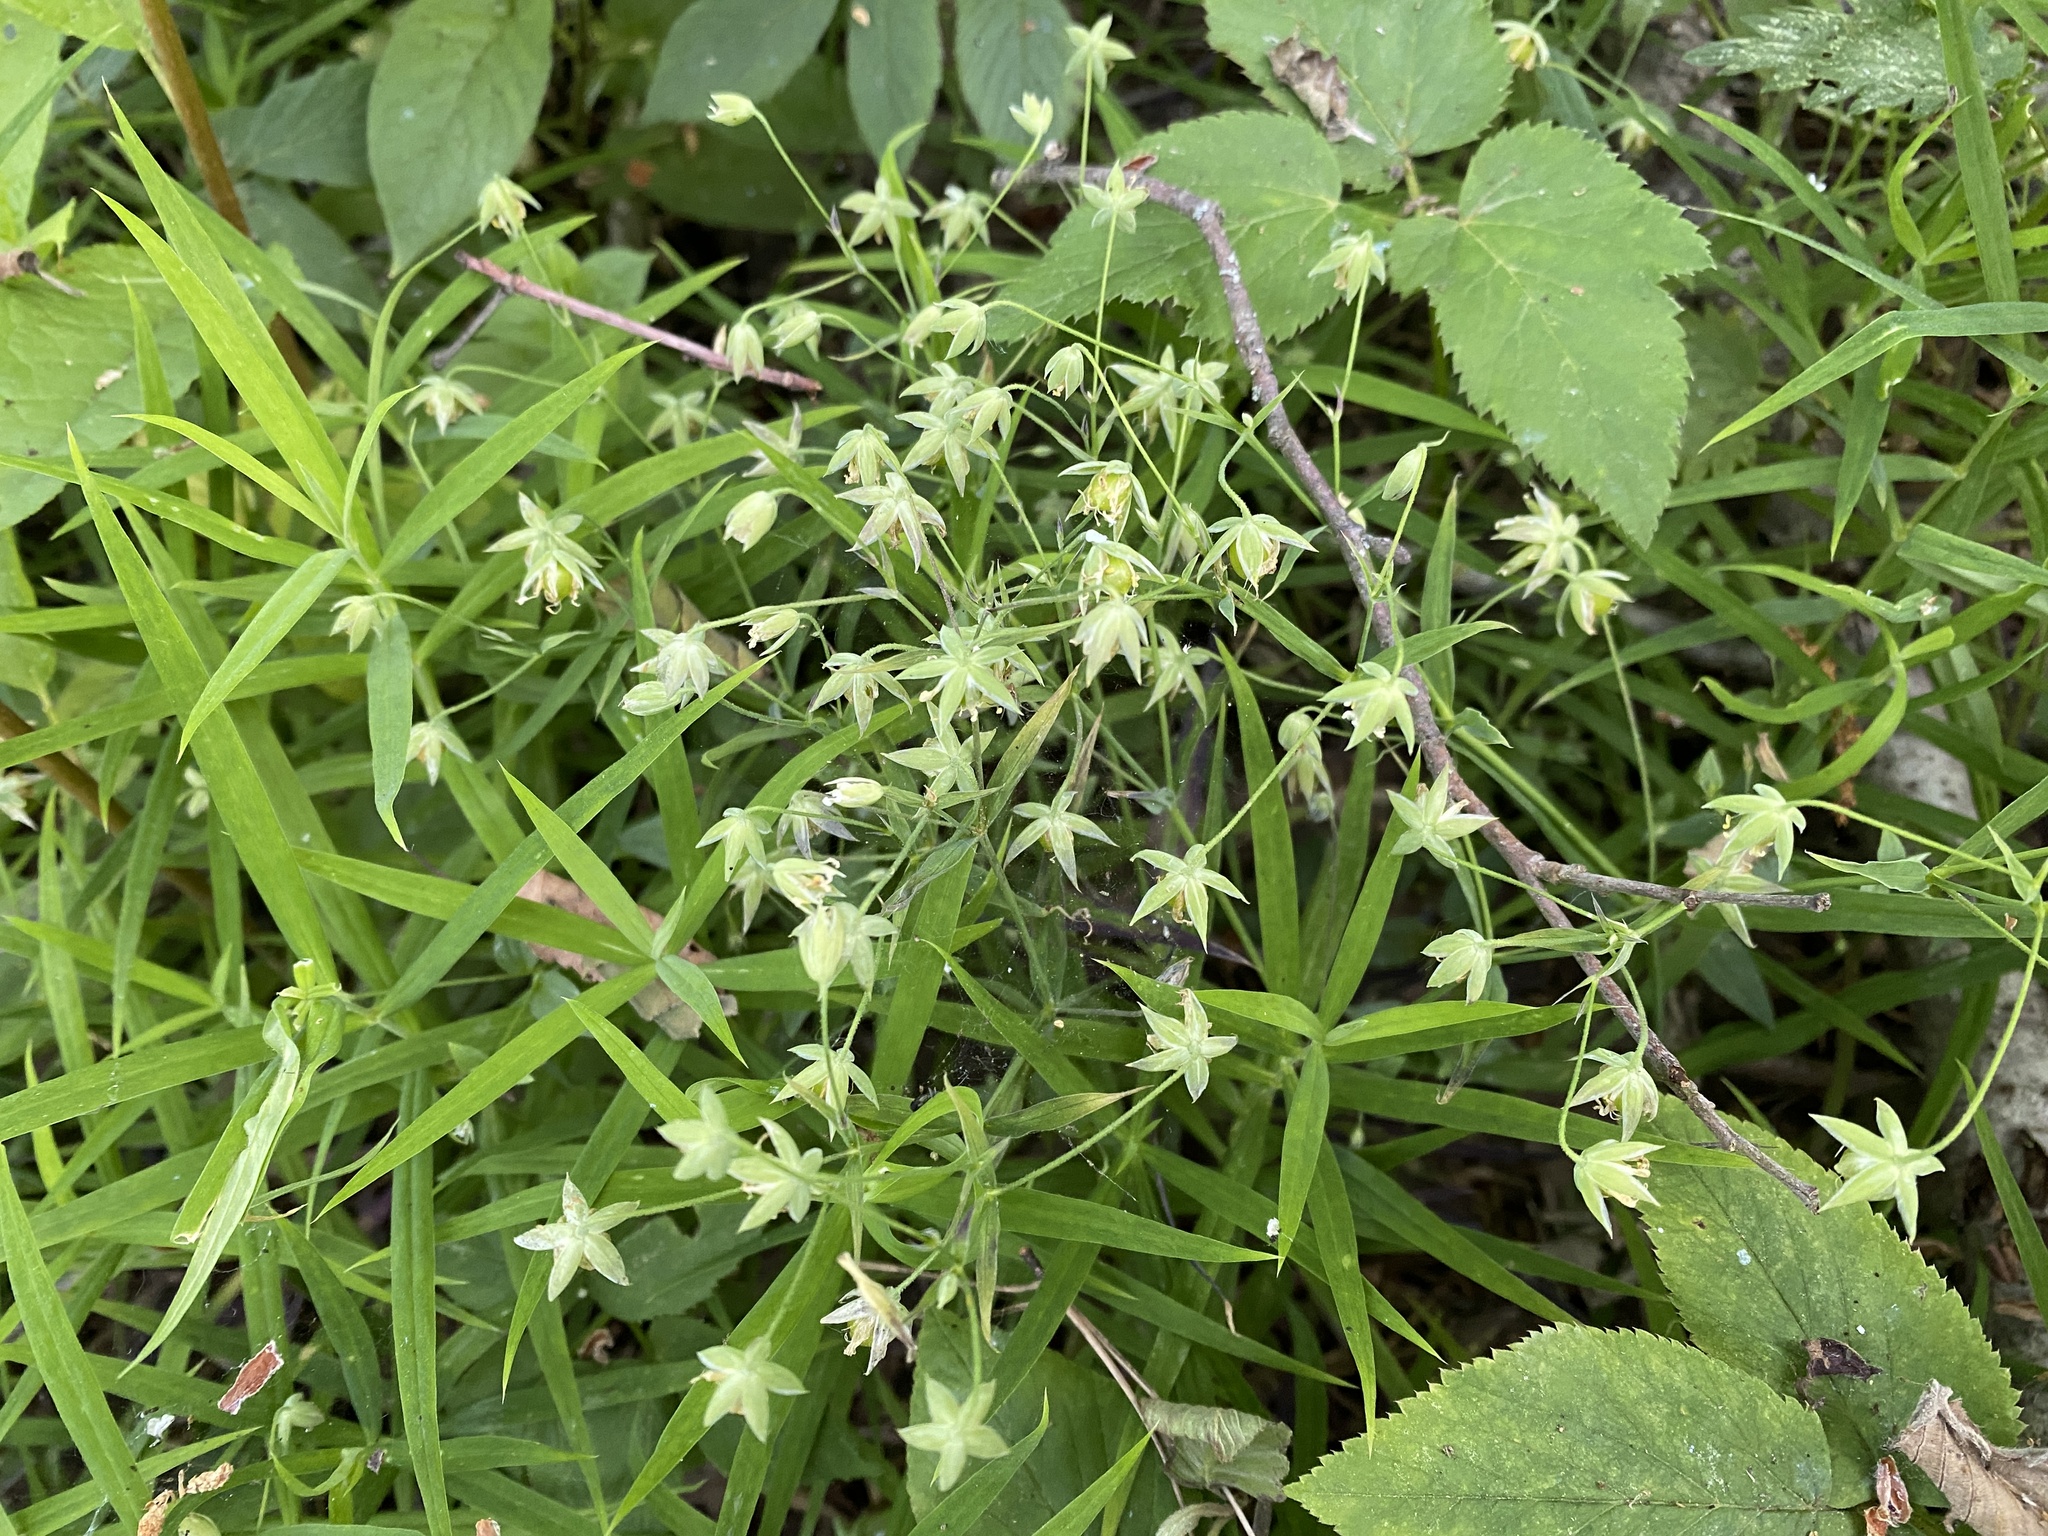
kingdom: Plantae
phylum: Tracheophyta
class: Magnoliopsida
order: Caryophyllales
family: Caryophyllaceae
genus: Rabelera
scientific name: Rabelera holostea
